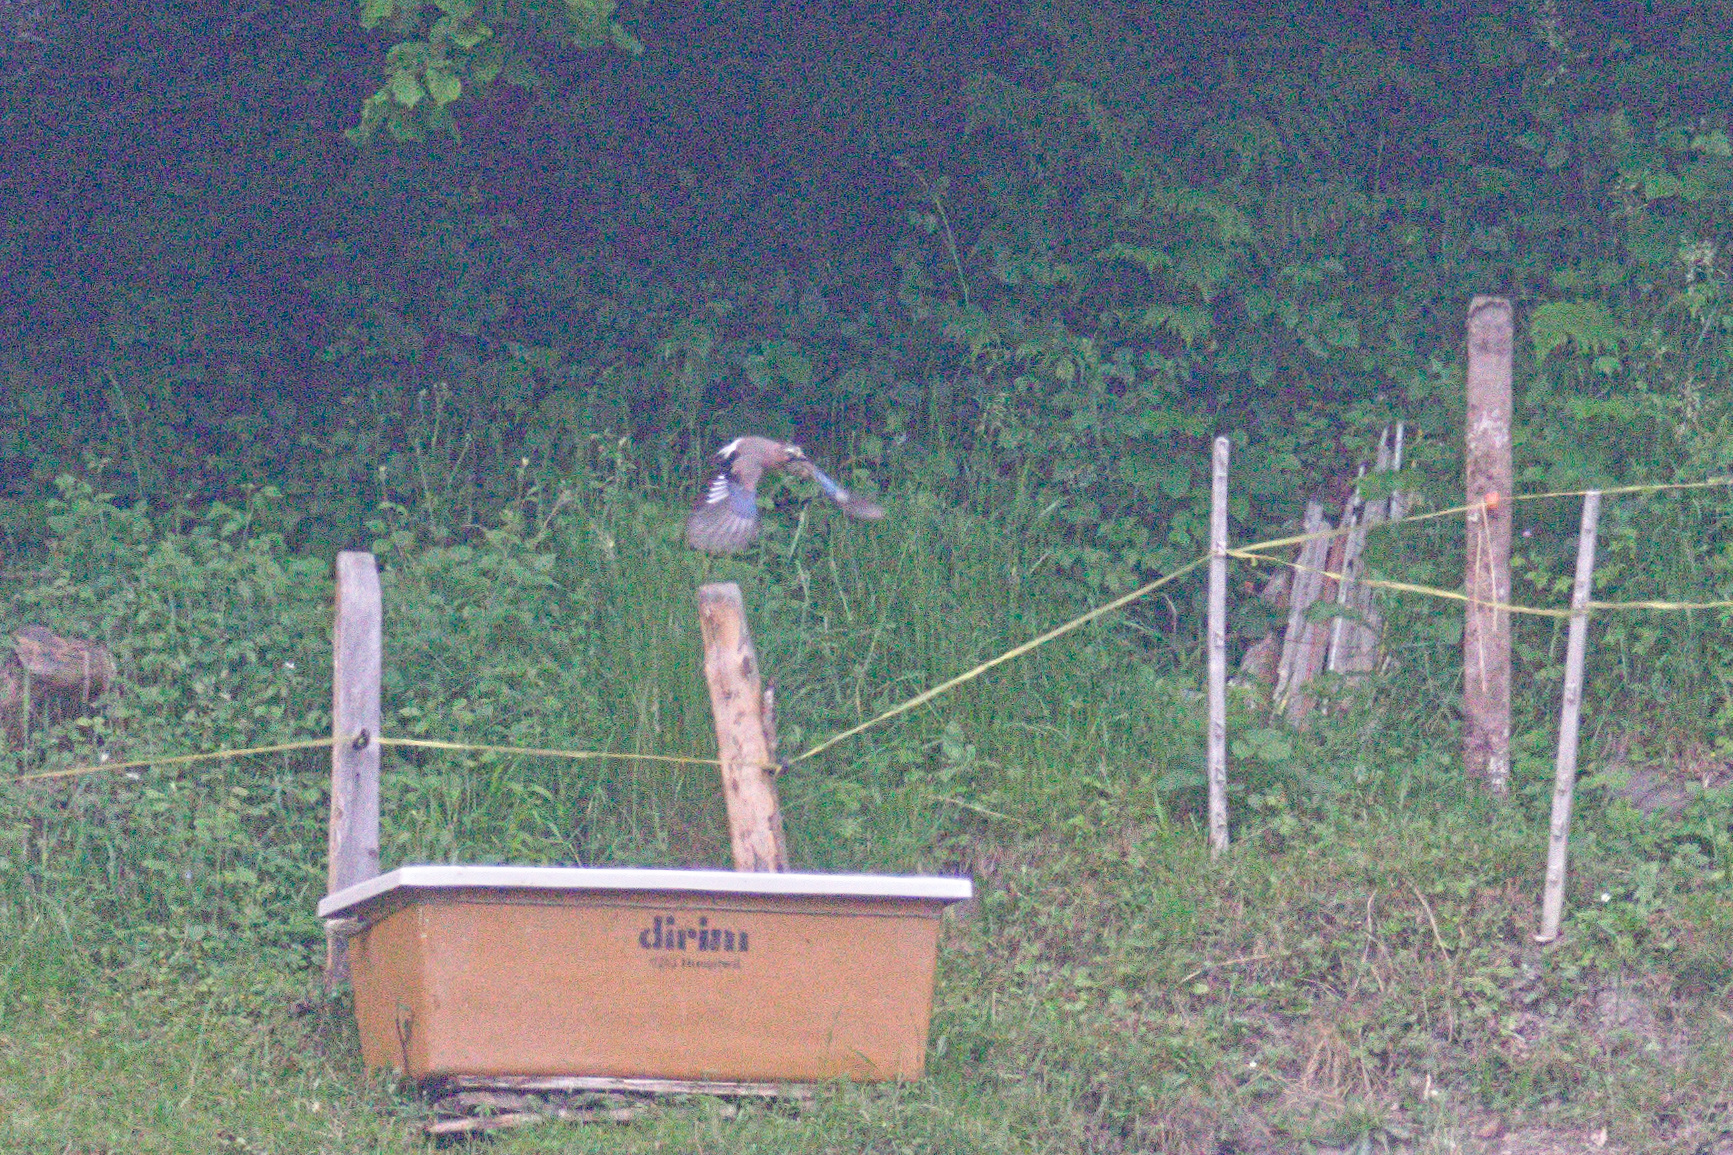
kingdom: Animalia
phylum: Chordata
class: Aves
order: Passeriformes
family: Corvidae
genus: Garrulus
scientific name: Garrulus glandarius
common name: Eurasian jay
